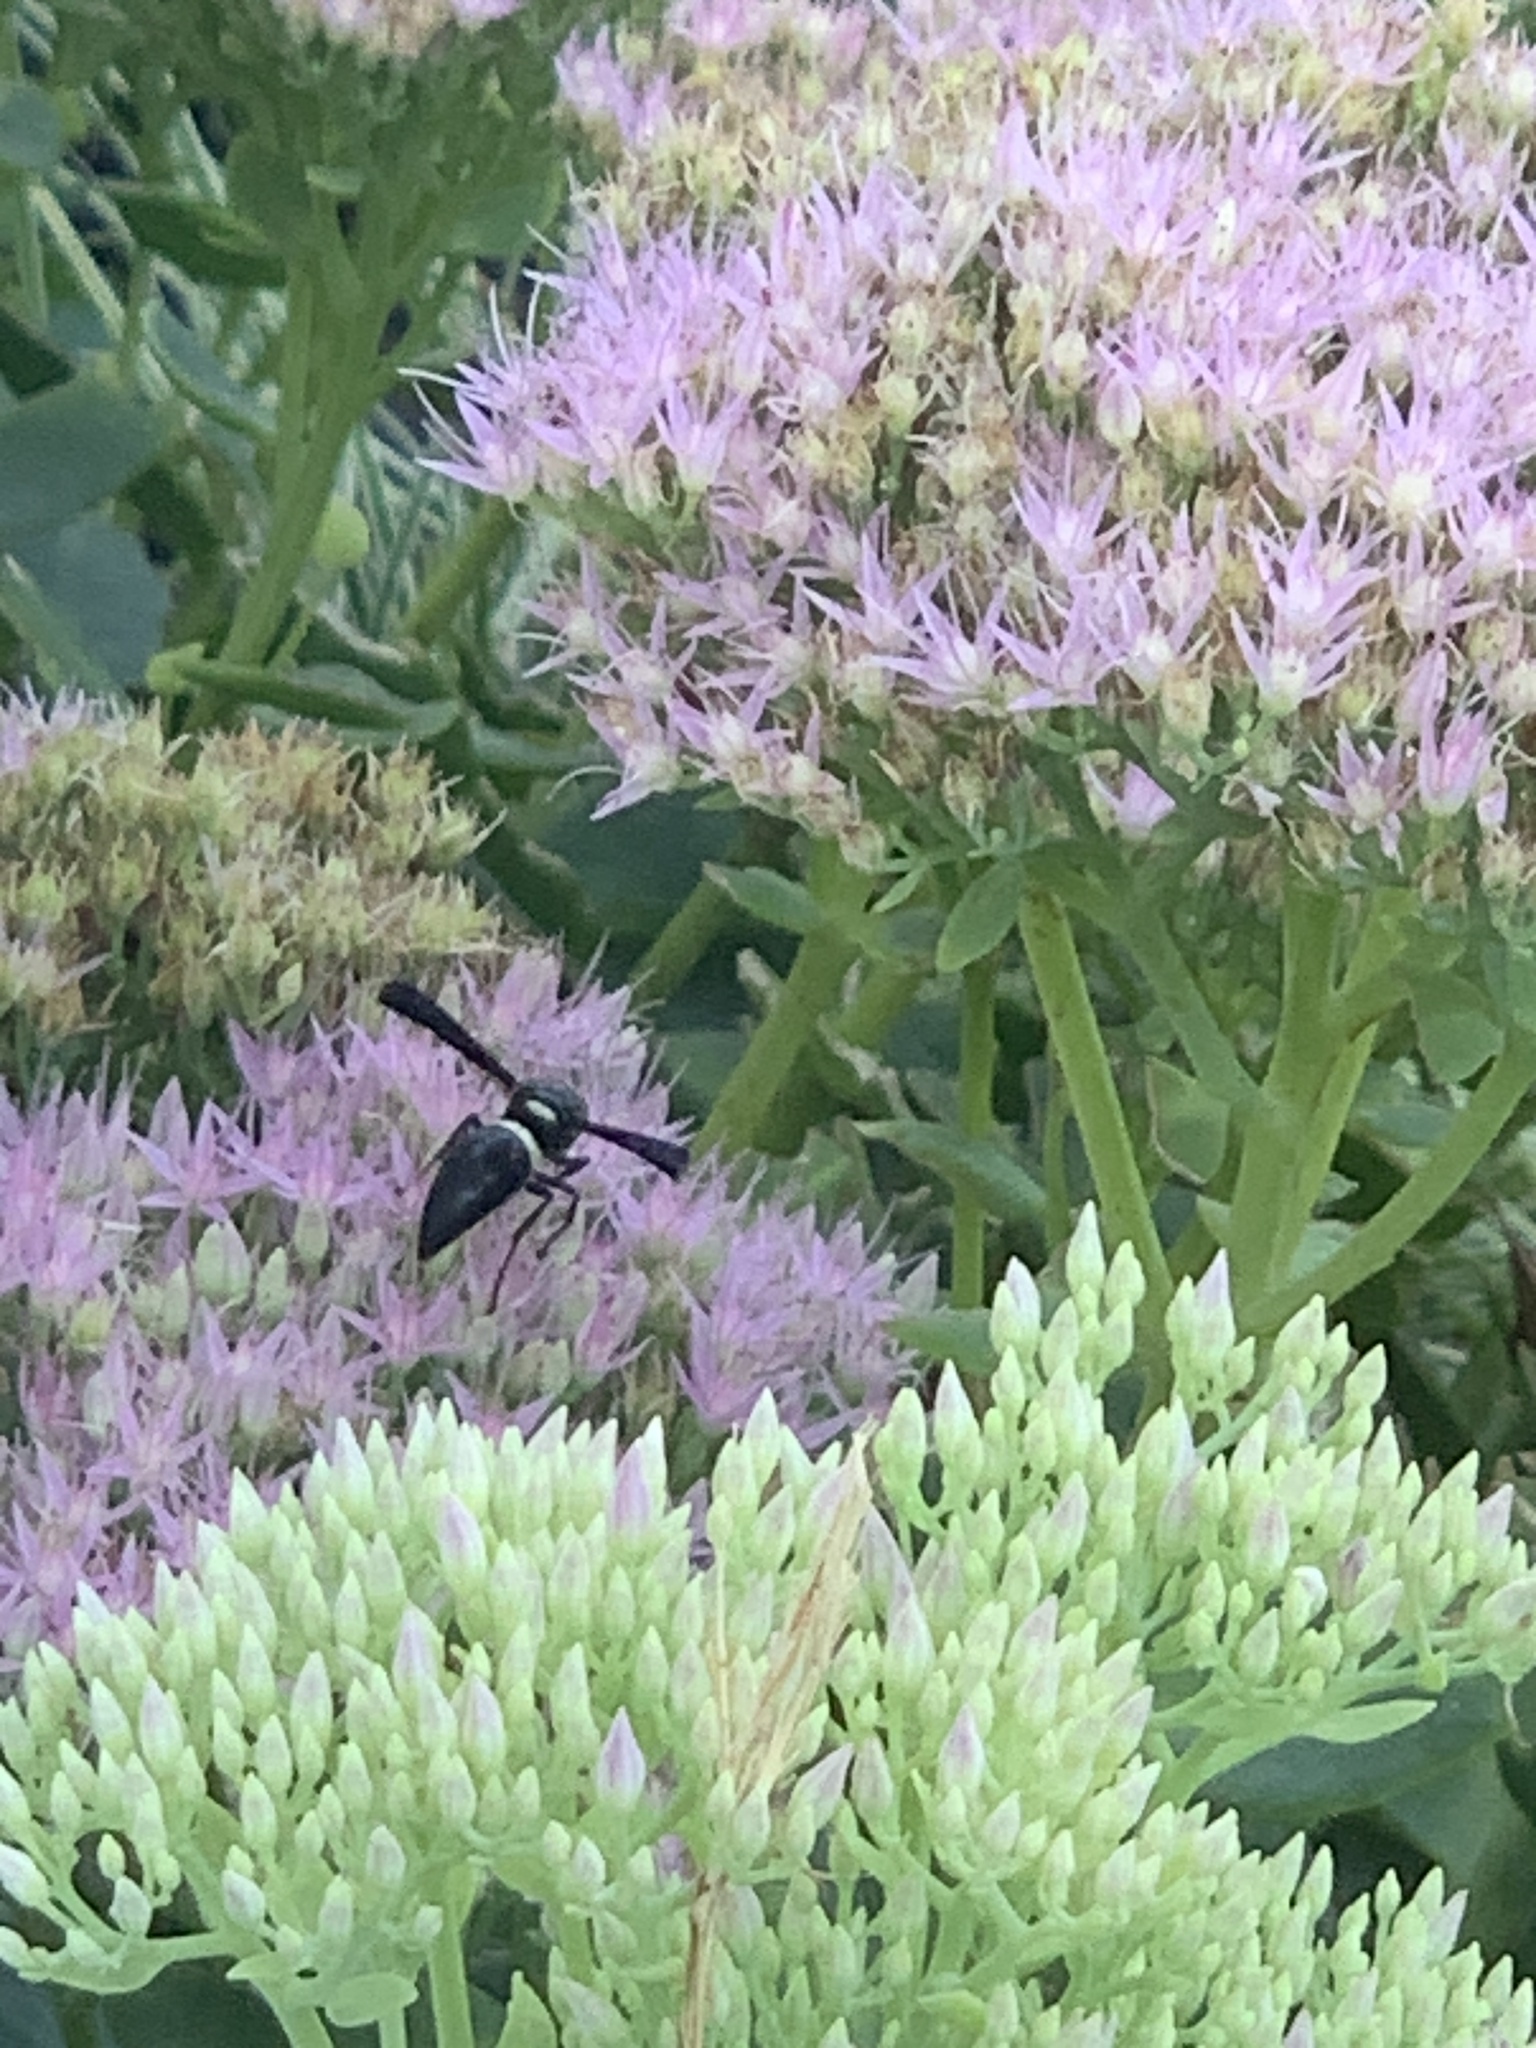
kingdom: Animalia
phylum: Arthropoda
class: Insecta
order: Hymenoptera
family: Eumenidae
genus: Monobia
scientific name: Monobia quadridens
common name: Four-toothed mason wasp
